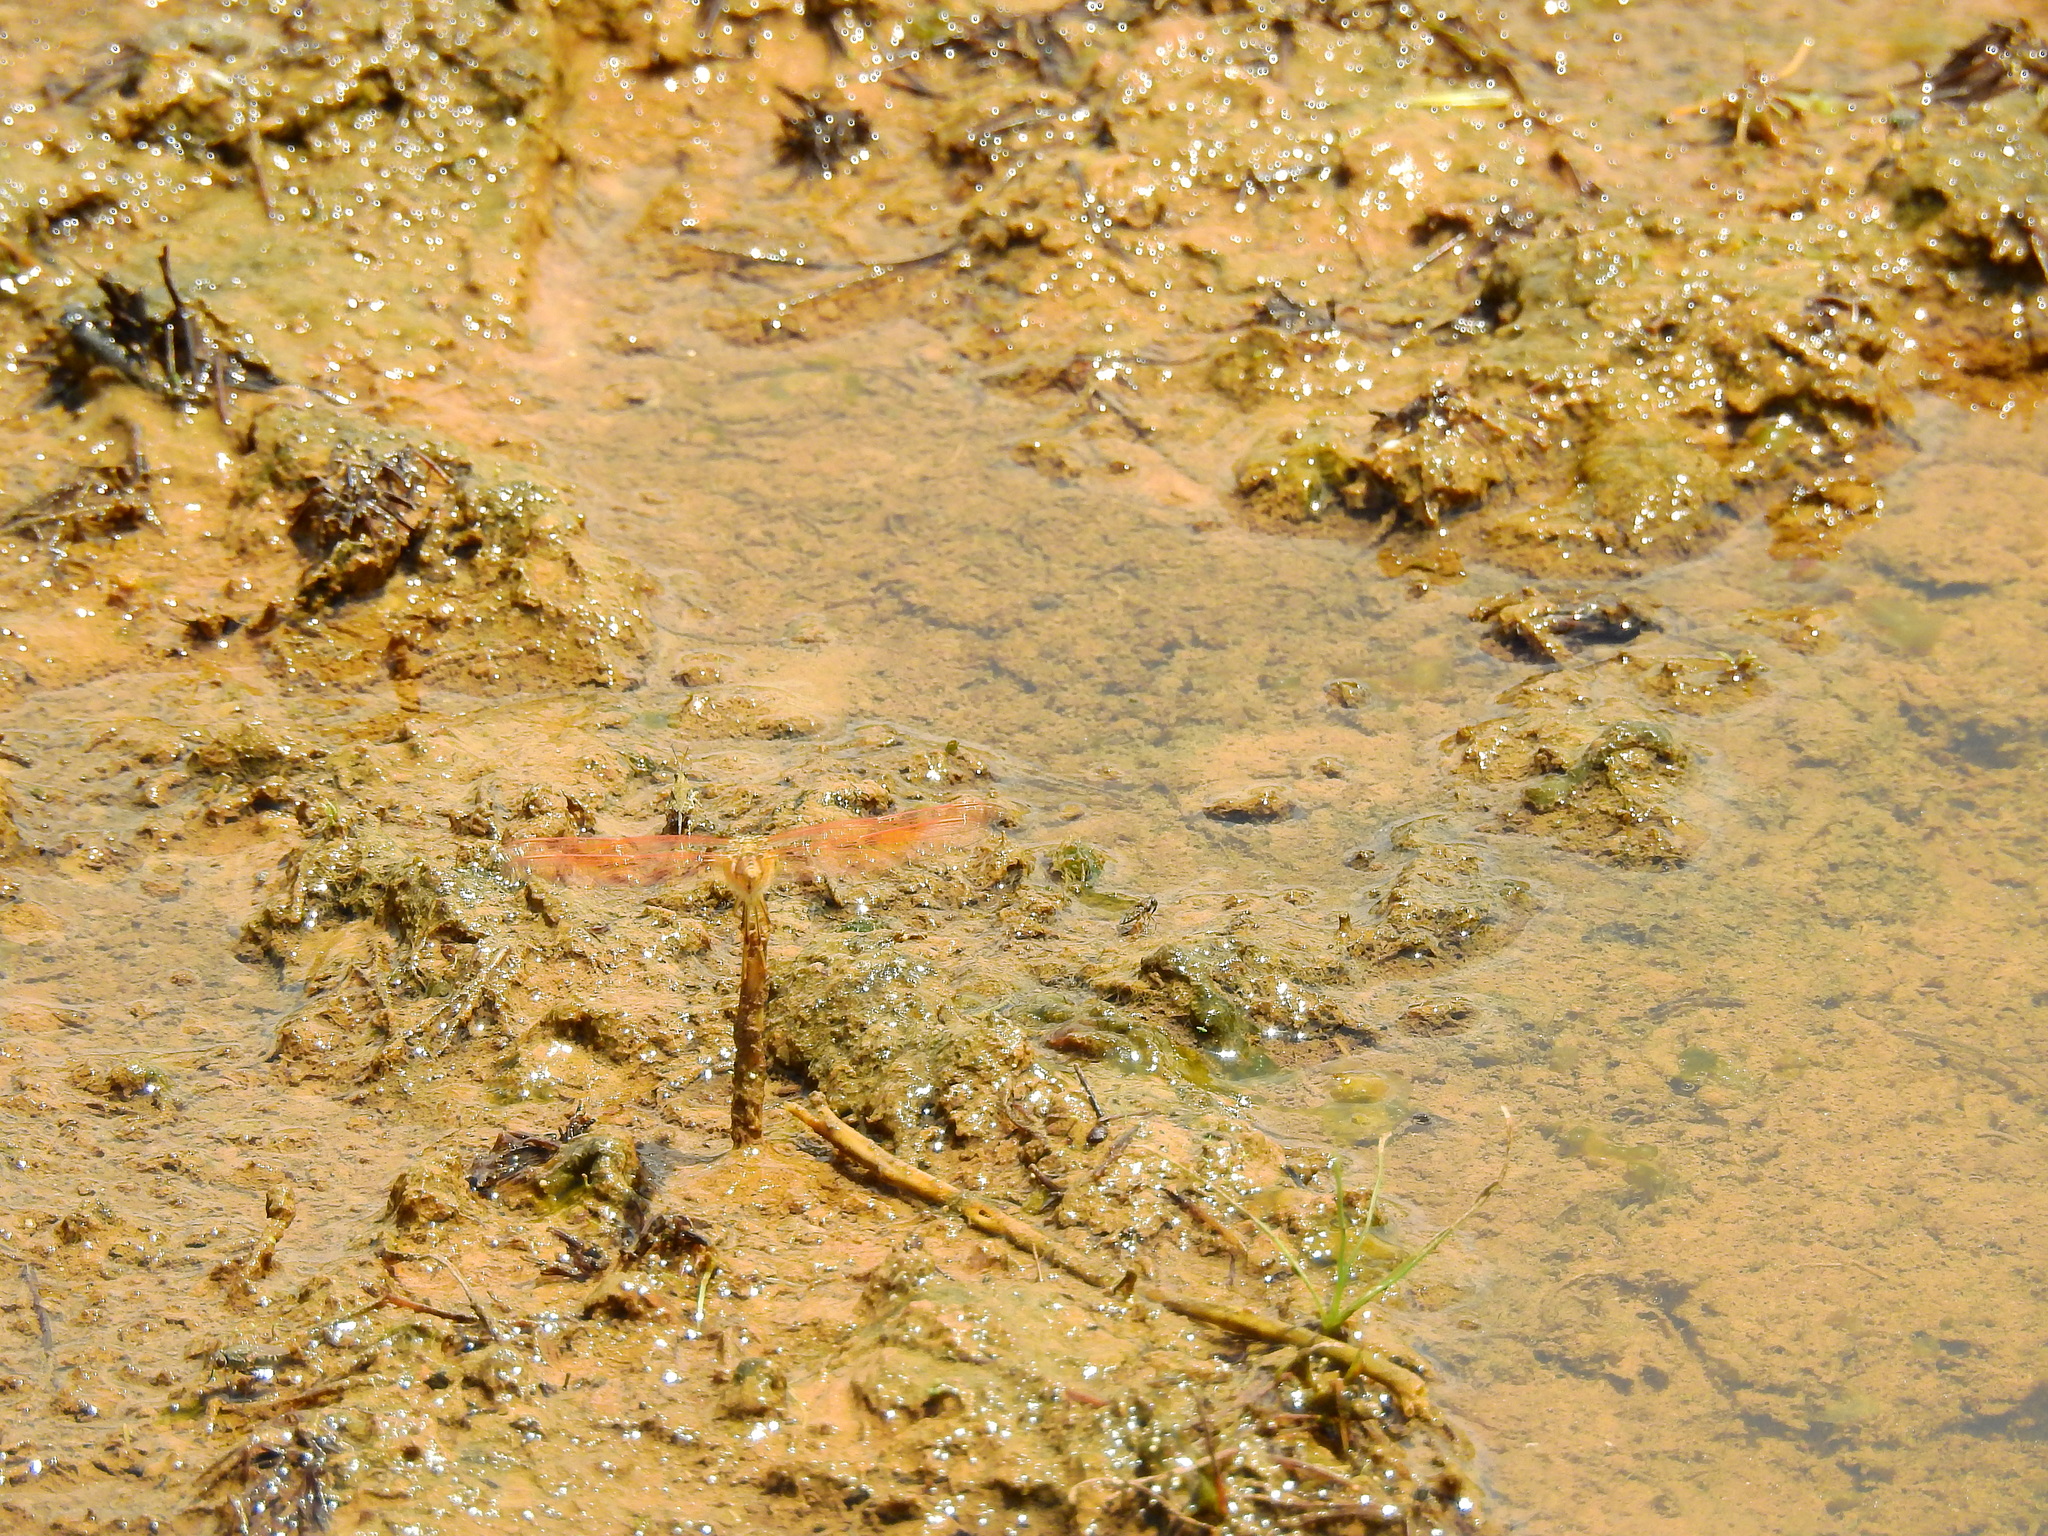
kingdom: Animalia
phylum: Arthropoda
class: Insecta
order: Odonata
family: Libellulidae
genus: Brachythemis
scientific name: Brachythemis contaminata
